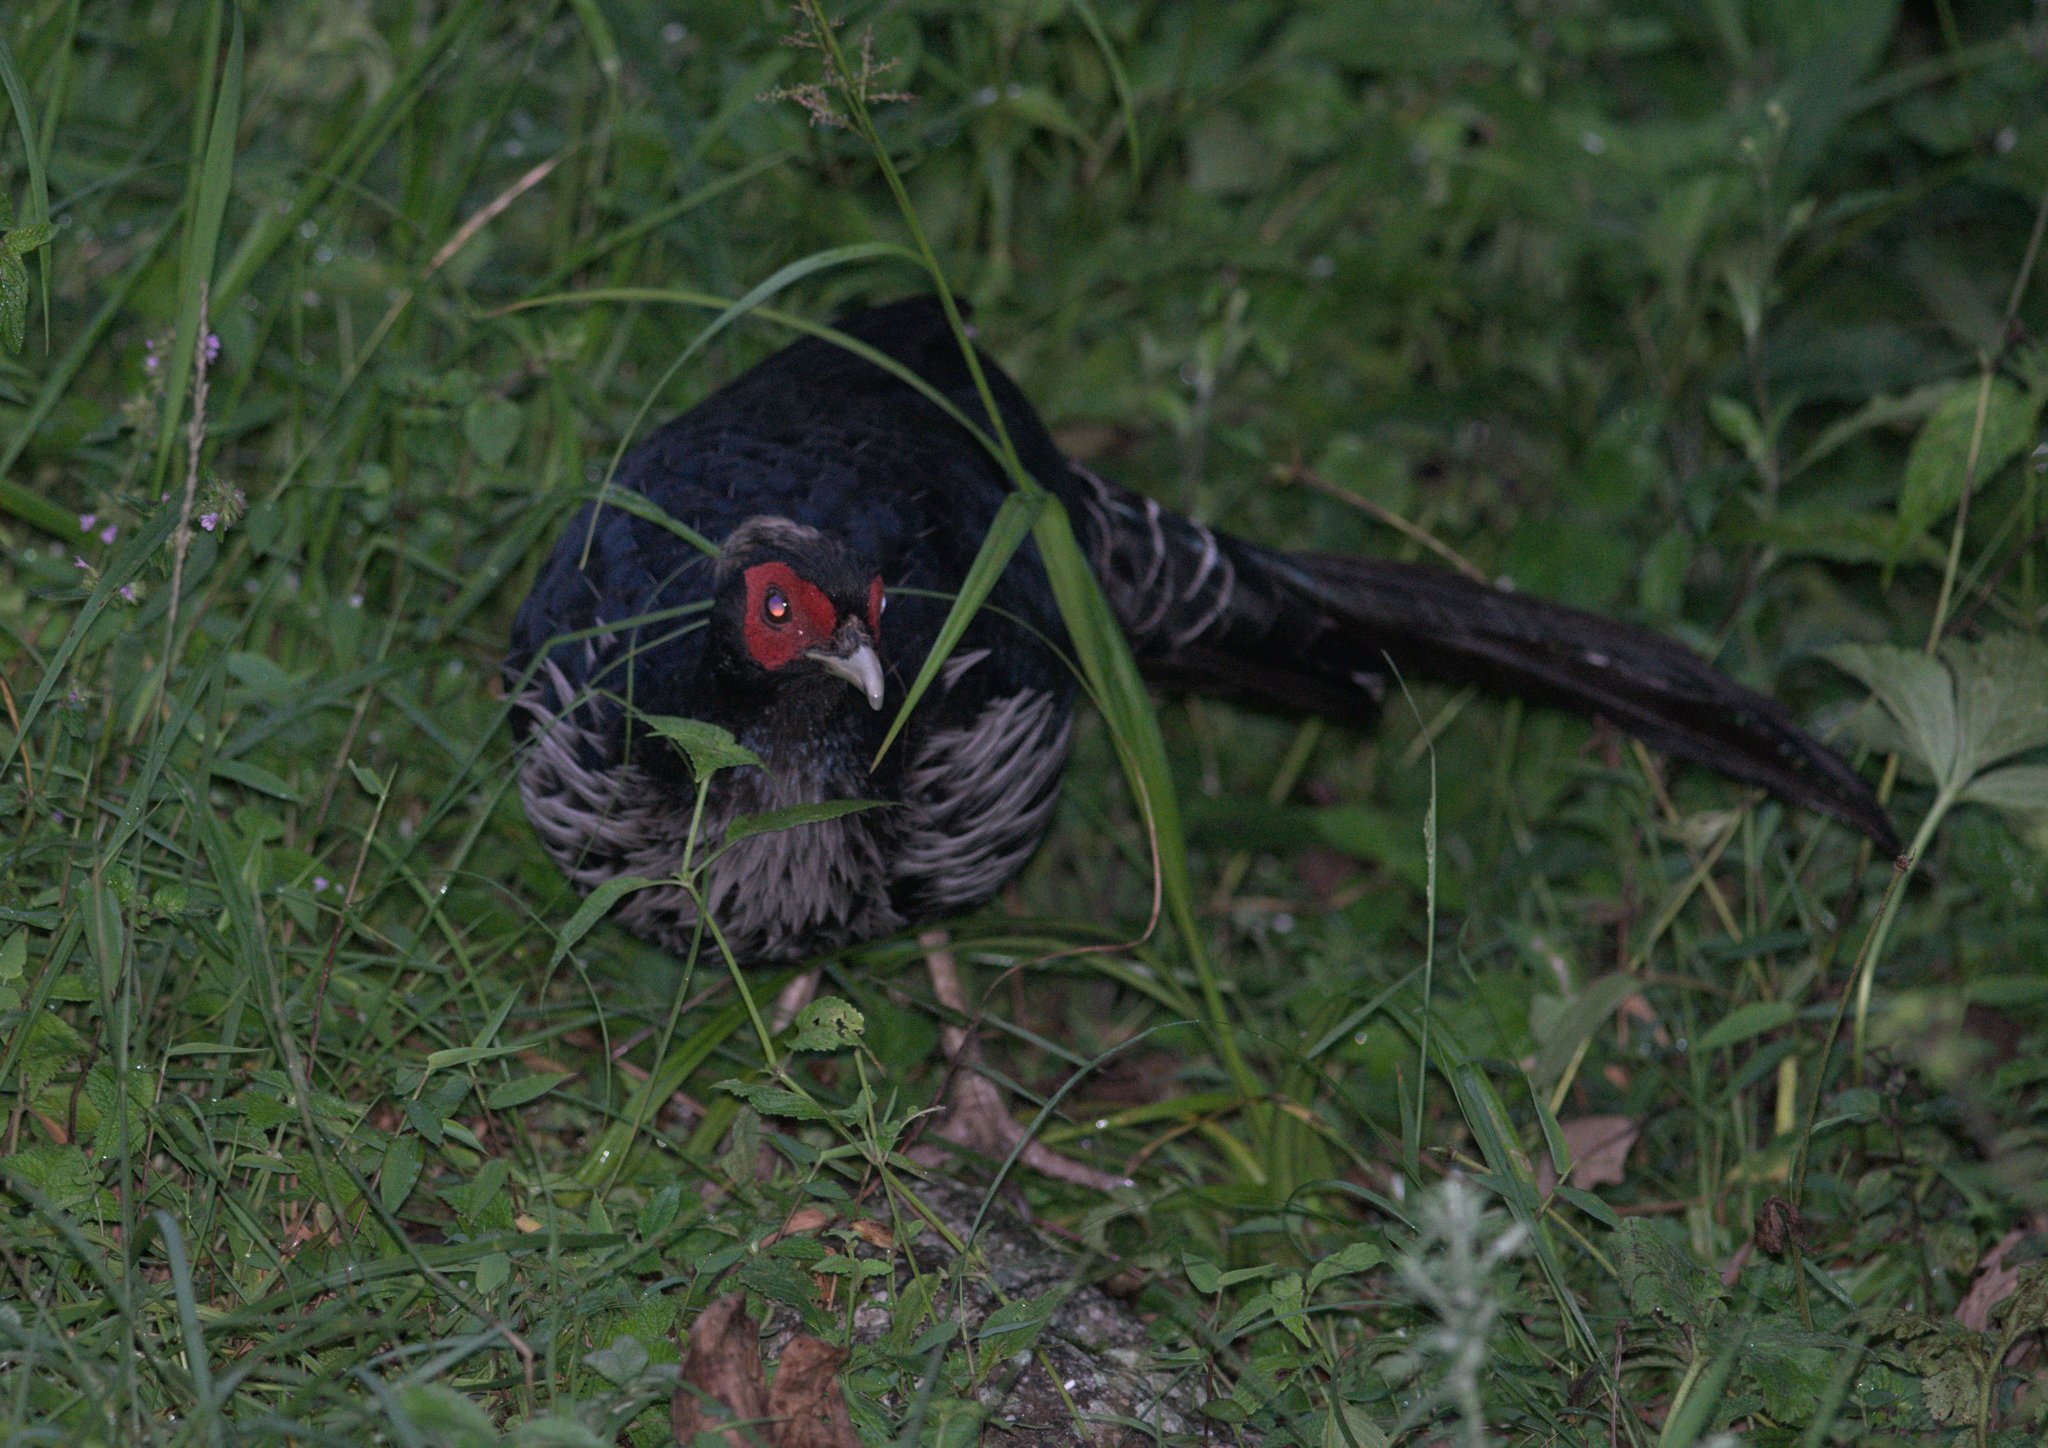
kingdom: Animalia
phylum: Chordata
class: Aves
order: Galliformes
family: Phasianidae
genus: Lophura
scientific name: Lophura leucomelanos
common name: Kalij pheasant
